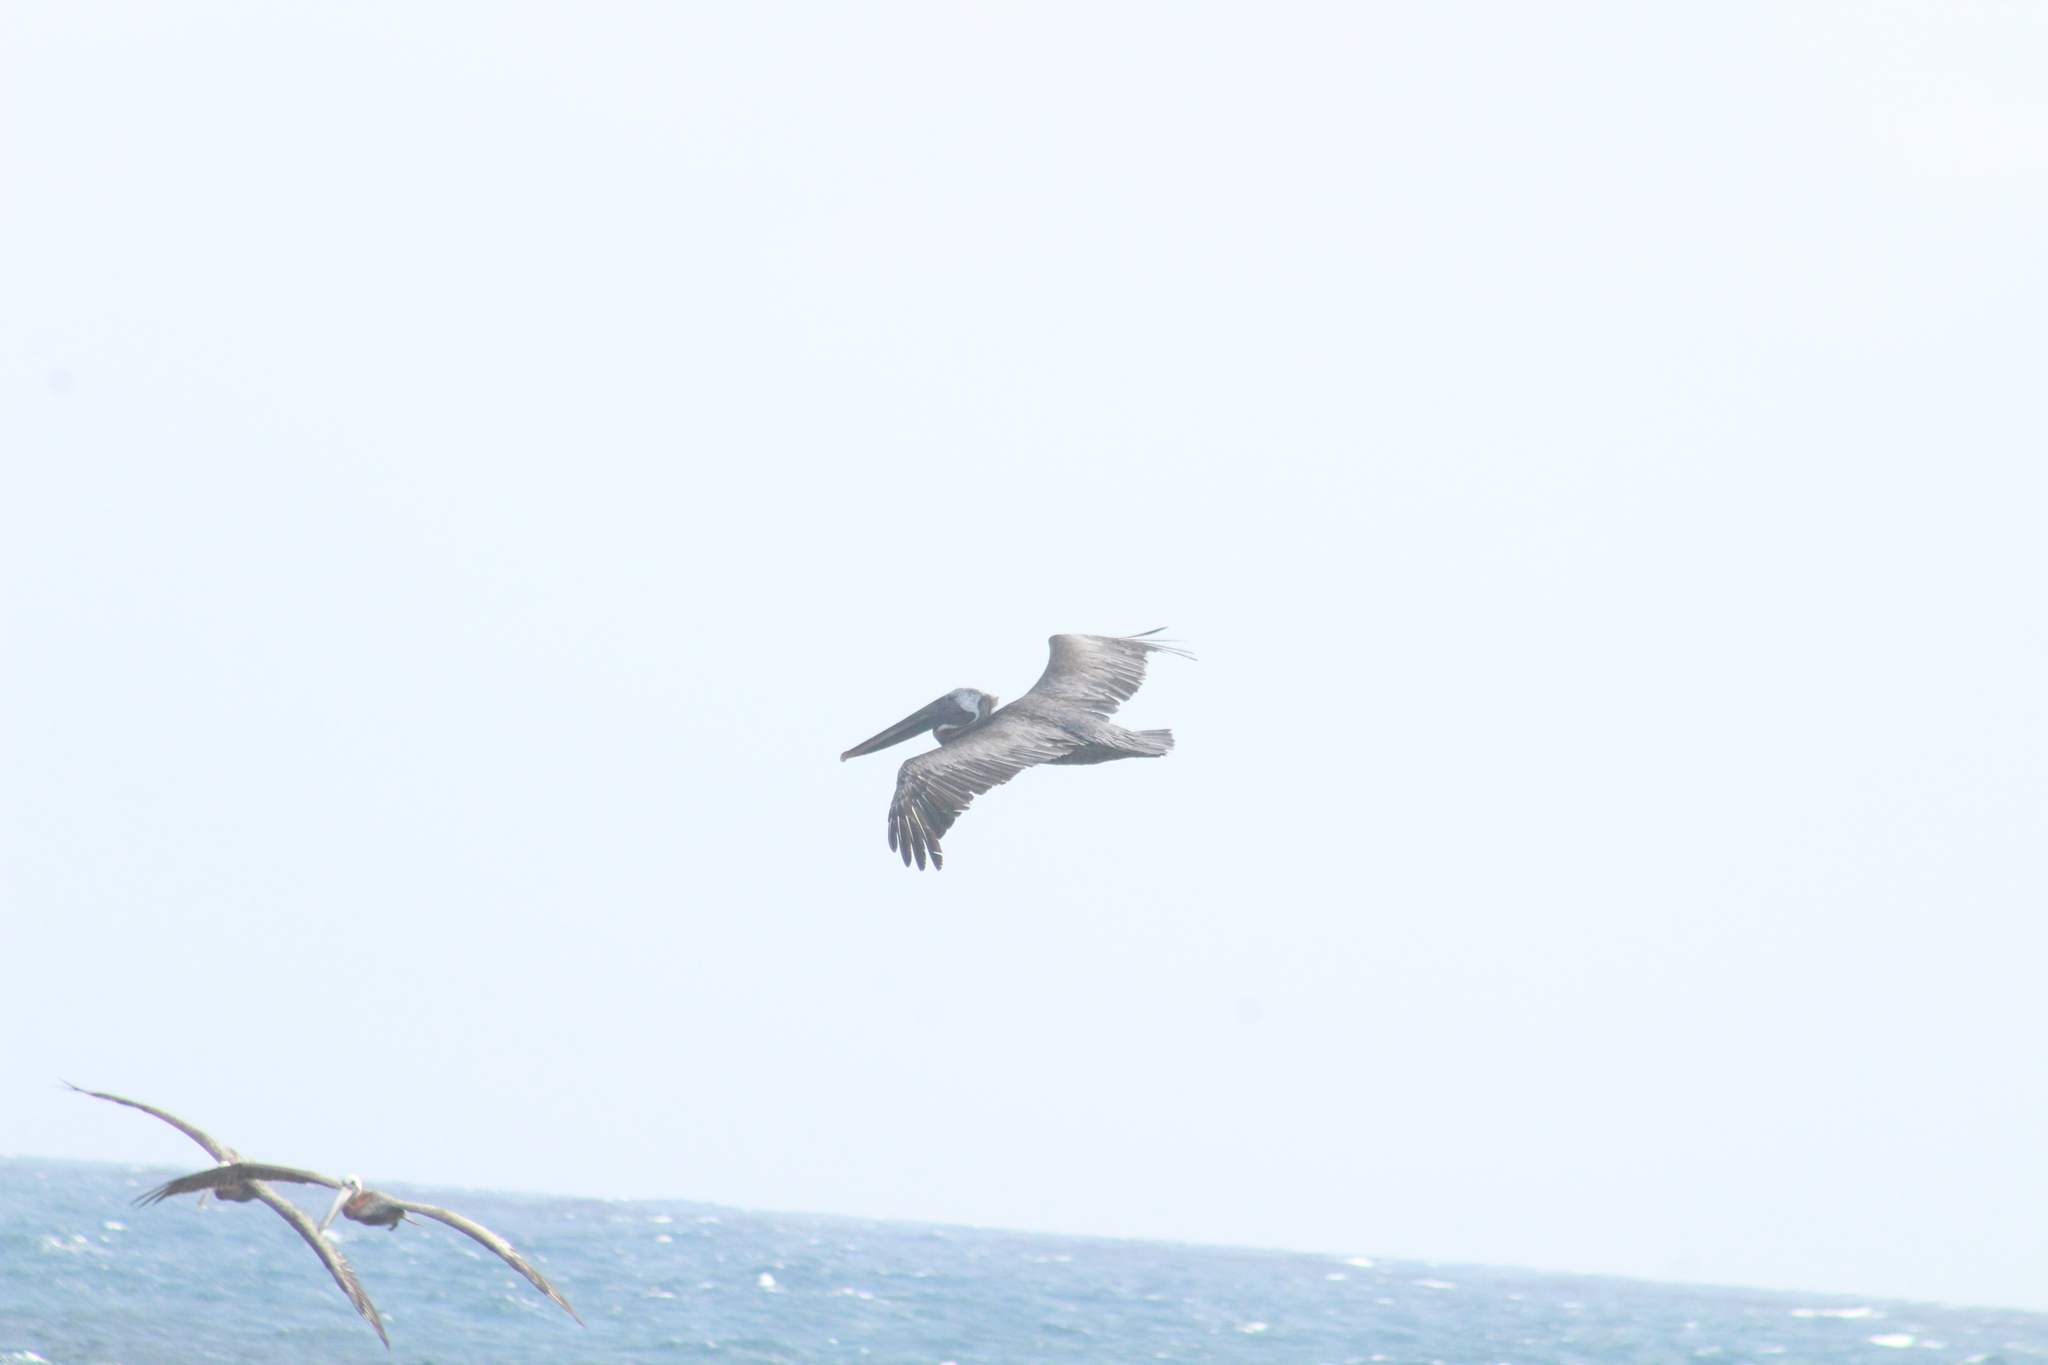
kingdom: Animalia
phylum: Chordata
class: Aves
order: Pelecaniformes
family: Pelecanidae
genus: Pelecanus
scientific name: Pelecanus occidentalis
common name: Brown pelican
